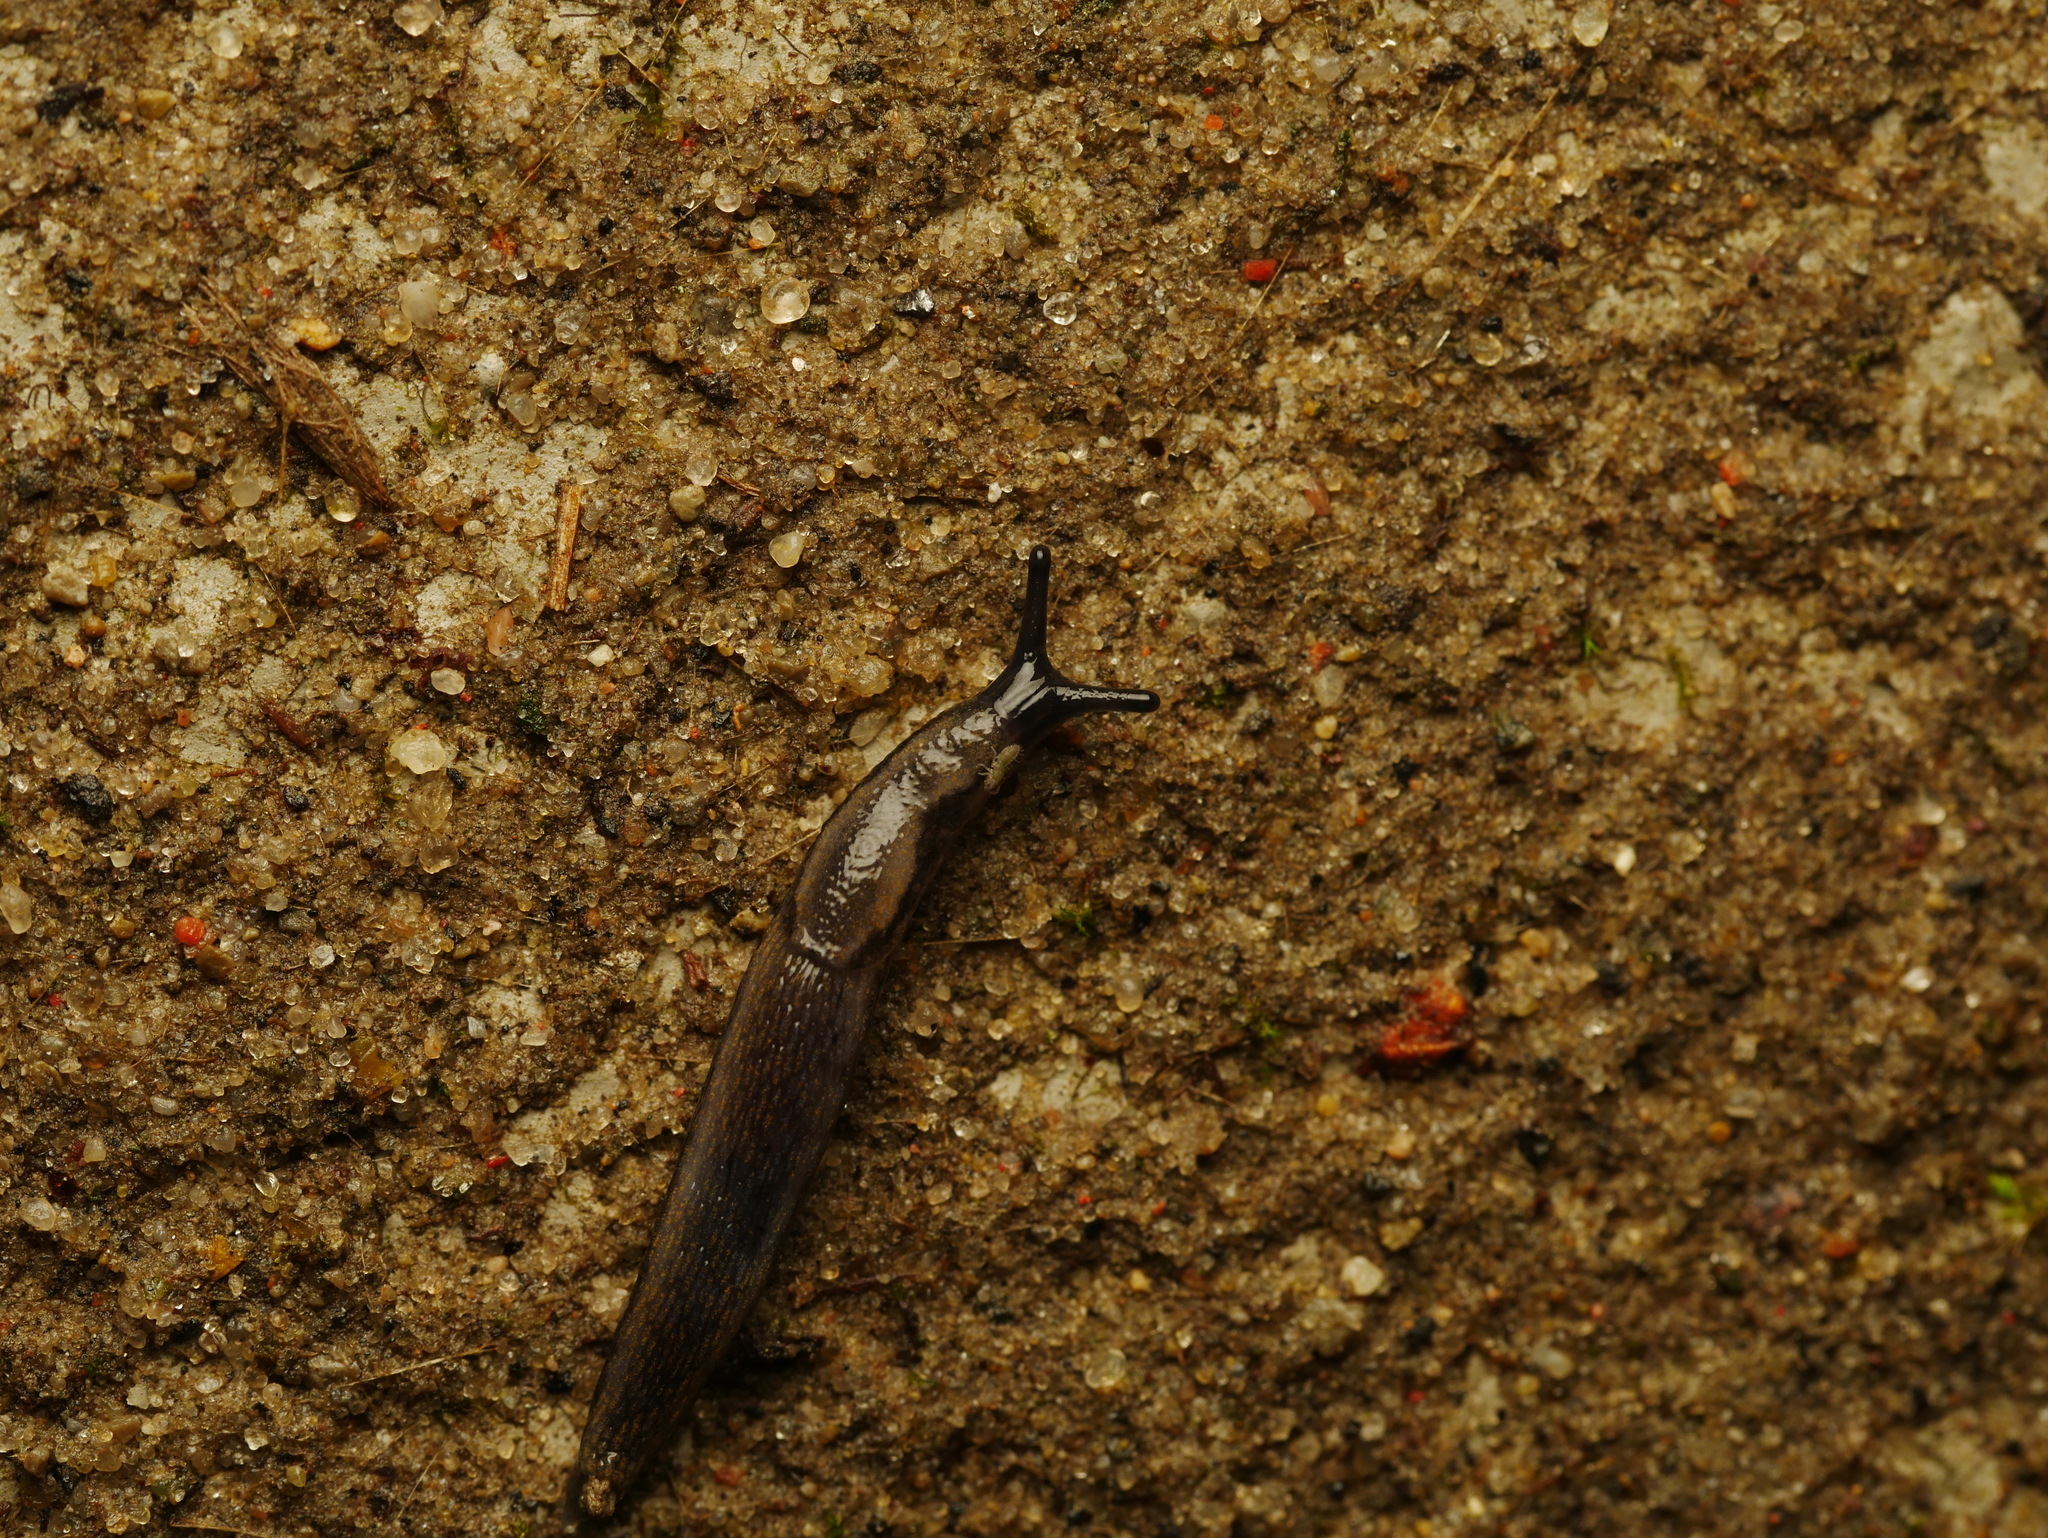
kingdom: Animalia
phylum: Mollusca
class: Gastropoda
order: Stylommatophora
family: Arionidae
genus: Arion
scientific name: Arion hortensis
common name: Garden arion
